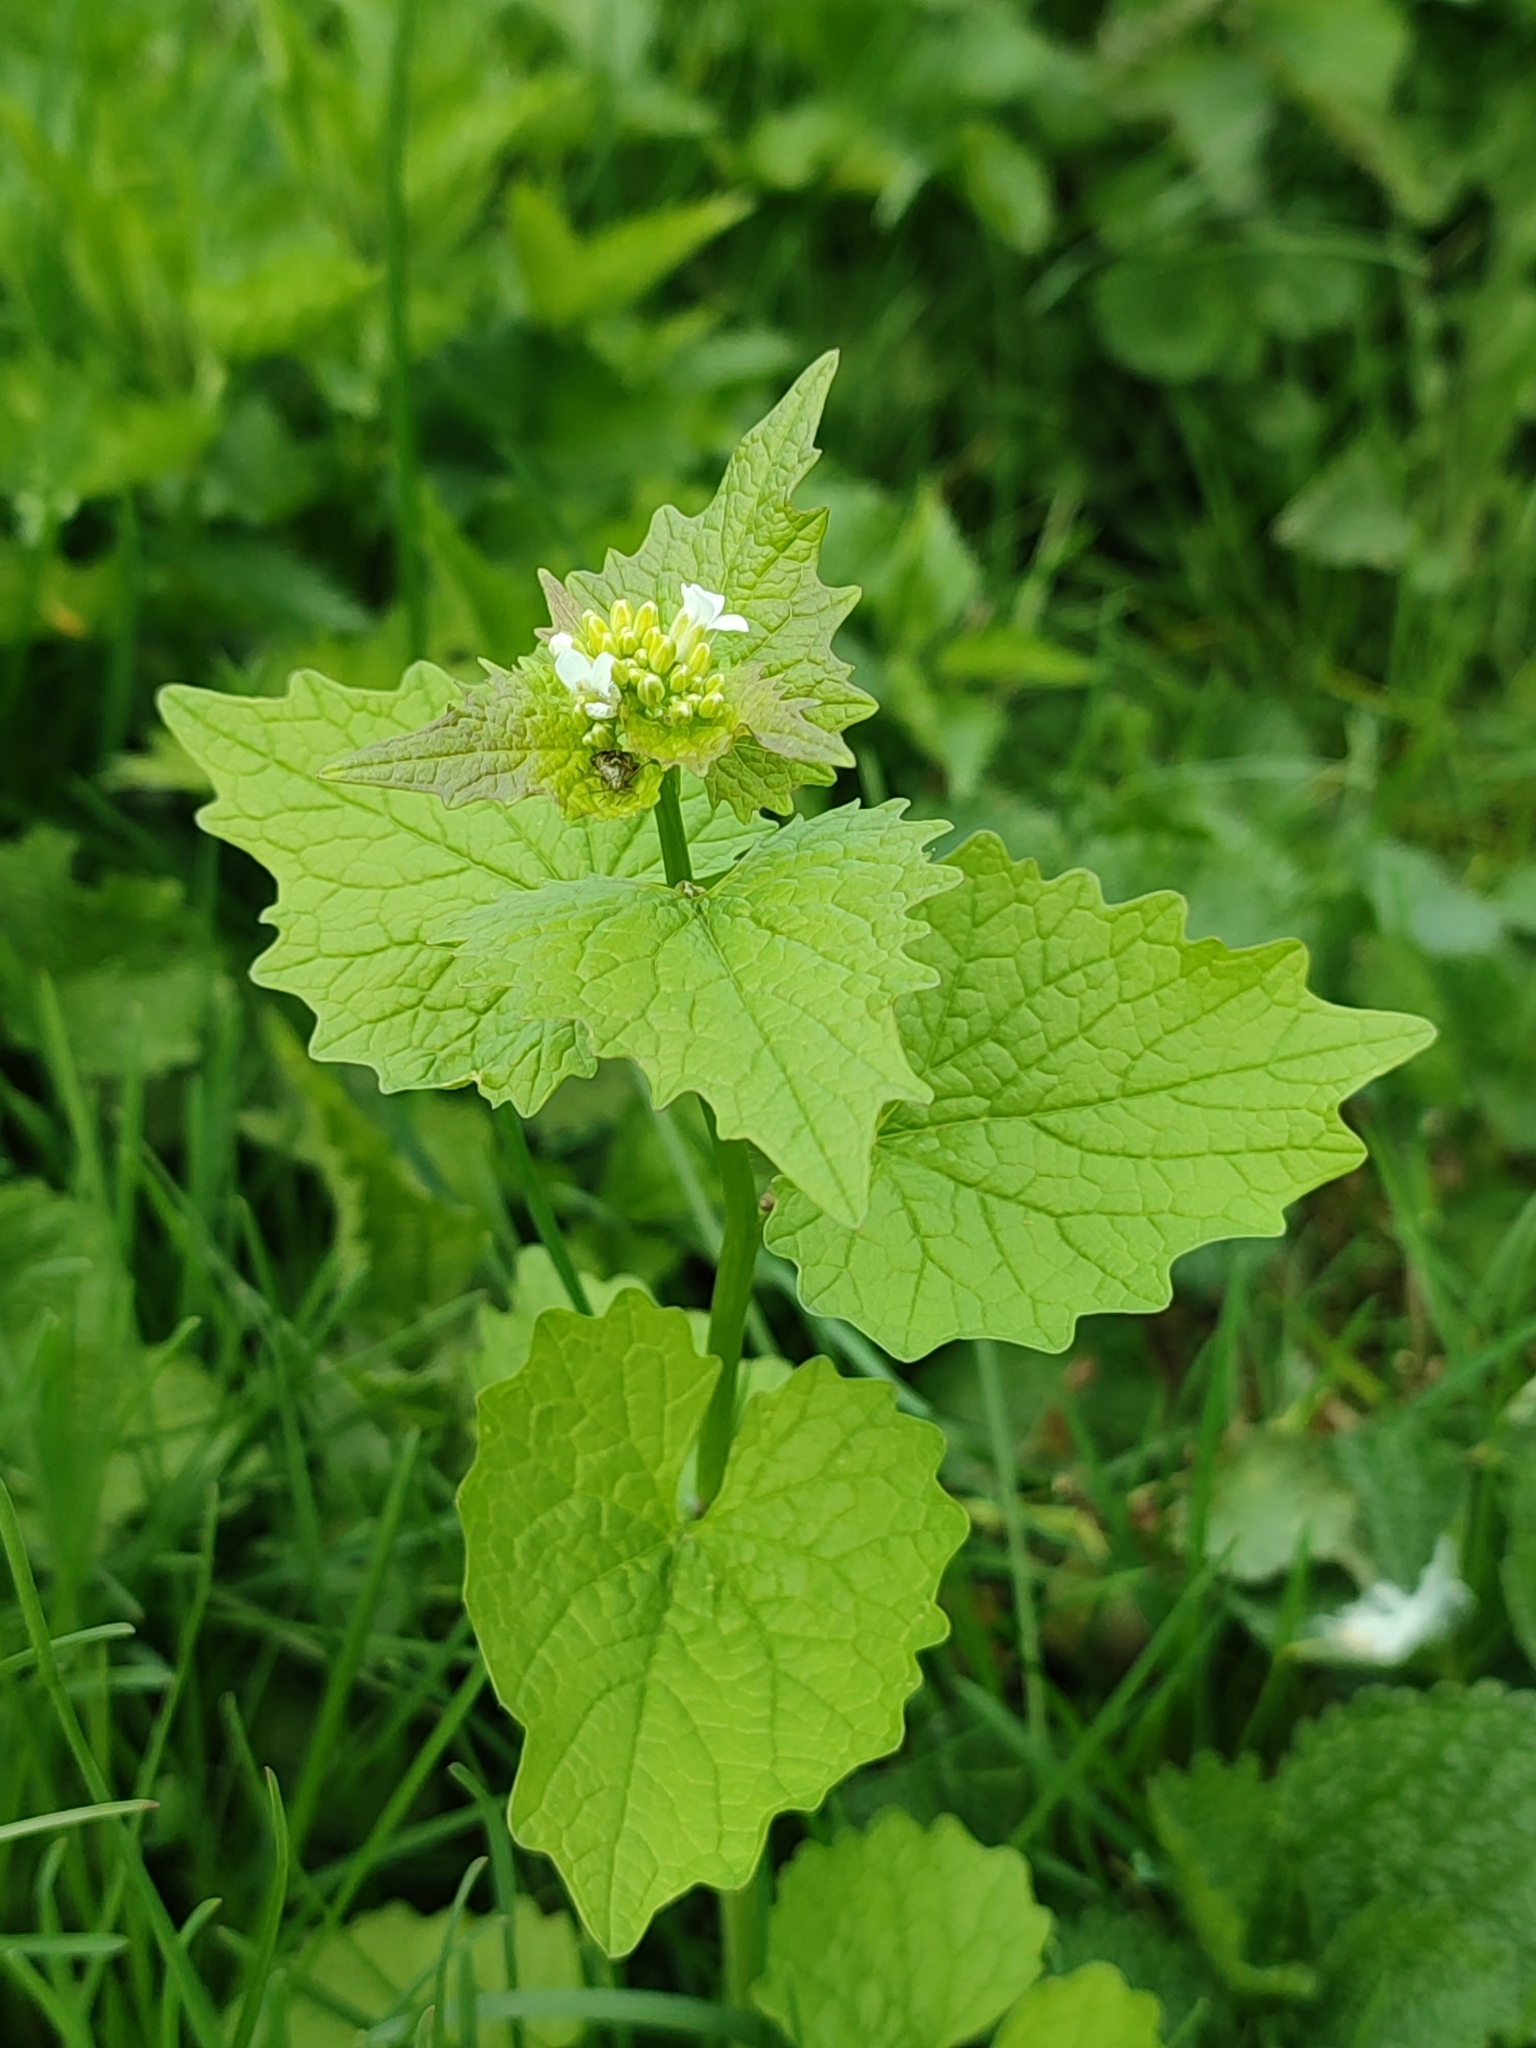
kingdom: Plantae
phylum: Tracheophyta
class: Magnoliopsida
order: Brassicales
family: Brassicaceae
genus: Alliaria
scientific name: Alliaria petiolata
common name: Garlic mustard
